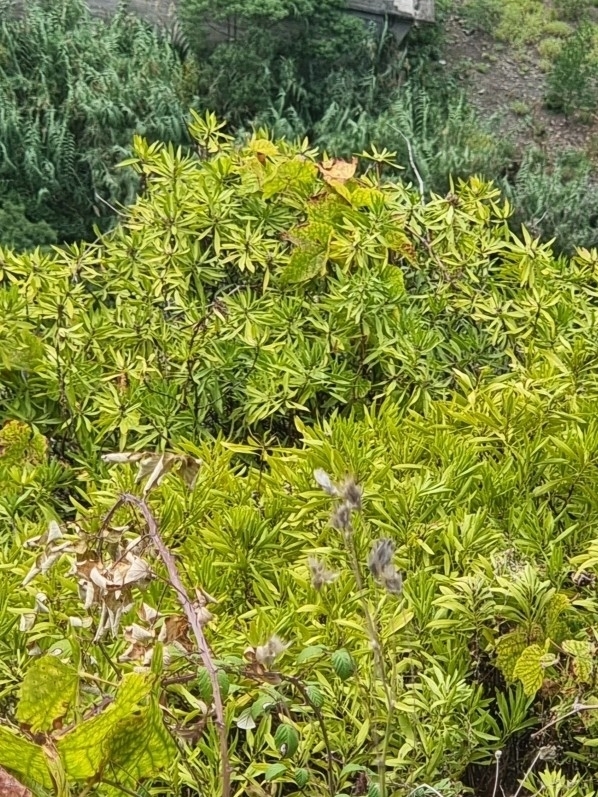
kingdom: Plantae
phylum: Tracheophyta
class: Magnoliopsida
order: Lamiales
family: Plantaginaceae
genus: Globularia
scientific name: Globularia salicina
